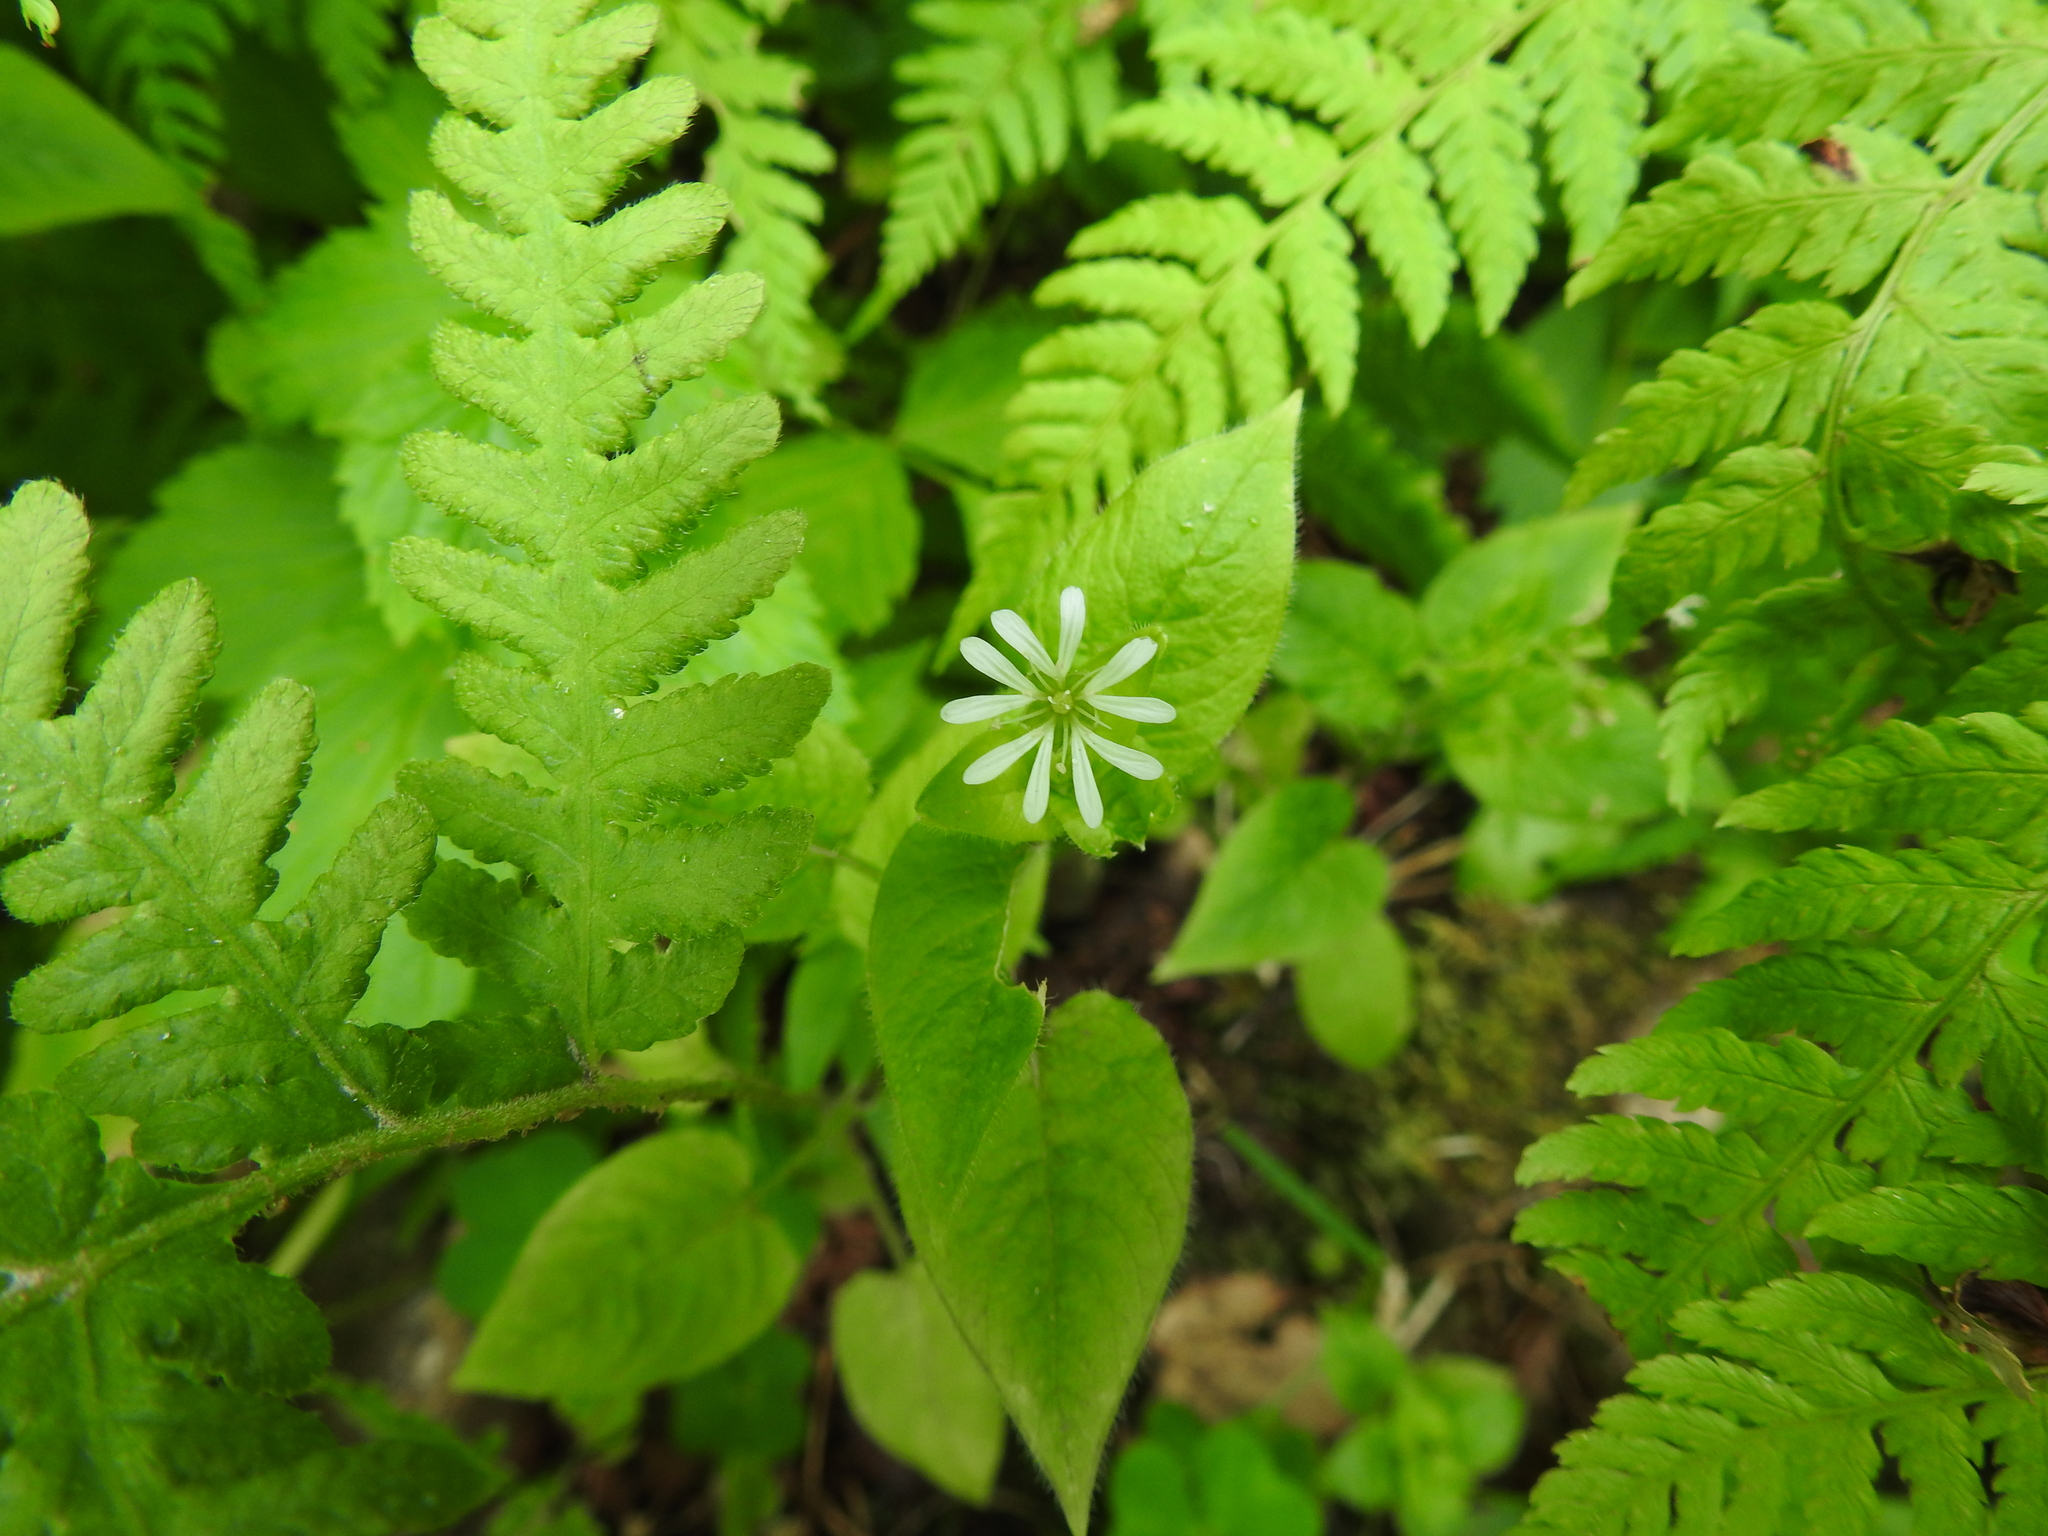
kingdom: Plantae
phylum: Tracheophyta
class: Magnoliopsida
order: Caryophyllales
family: Caryophyllaceae
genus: Stellaria
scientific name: Stellaria nemorum
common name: Wood stitchwort
